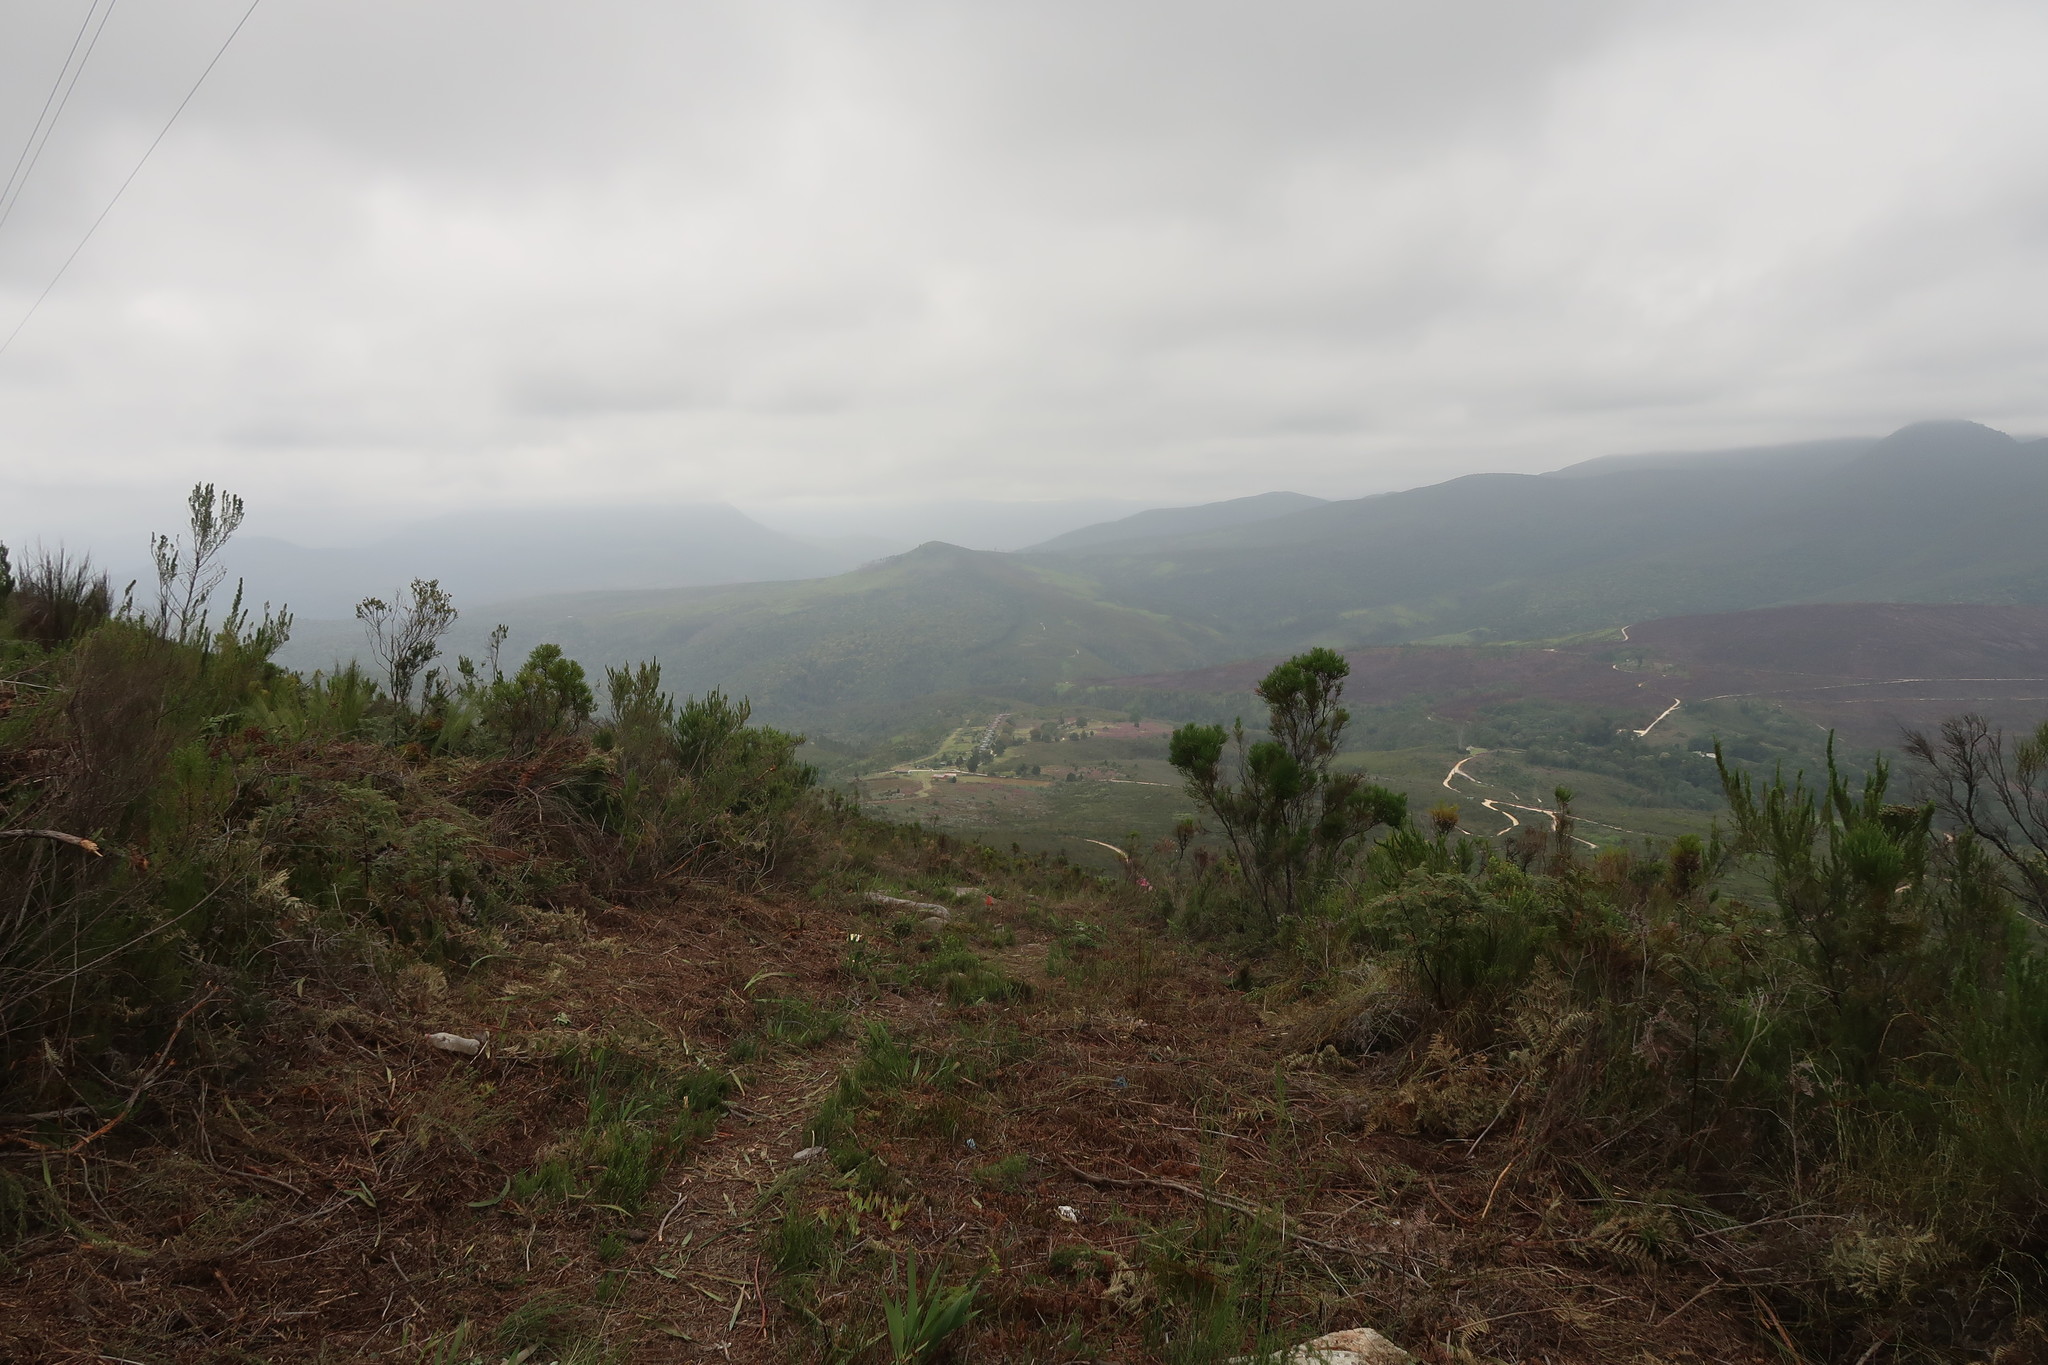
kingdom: Plantae
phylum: Tracheophyta
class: Magnoliopsida
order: Bruniales
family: Bruniaceae
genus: Berzelia
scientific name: Berzelia intermedia
